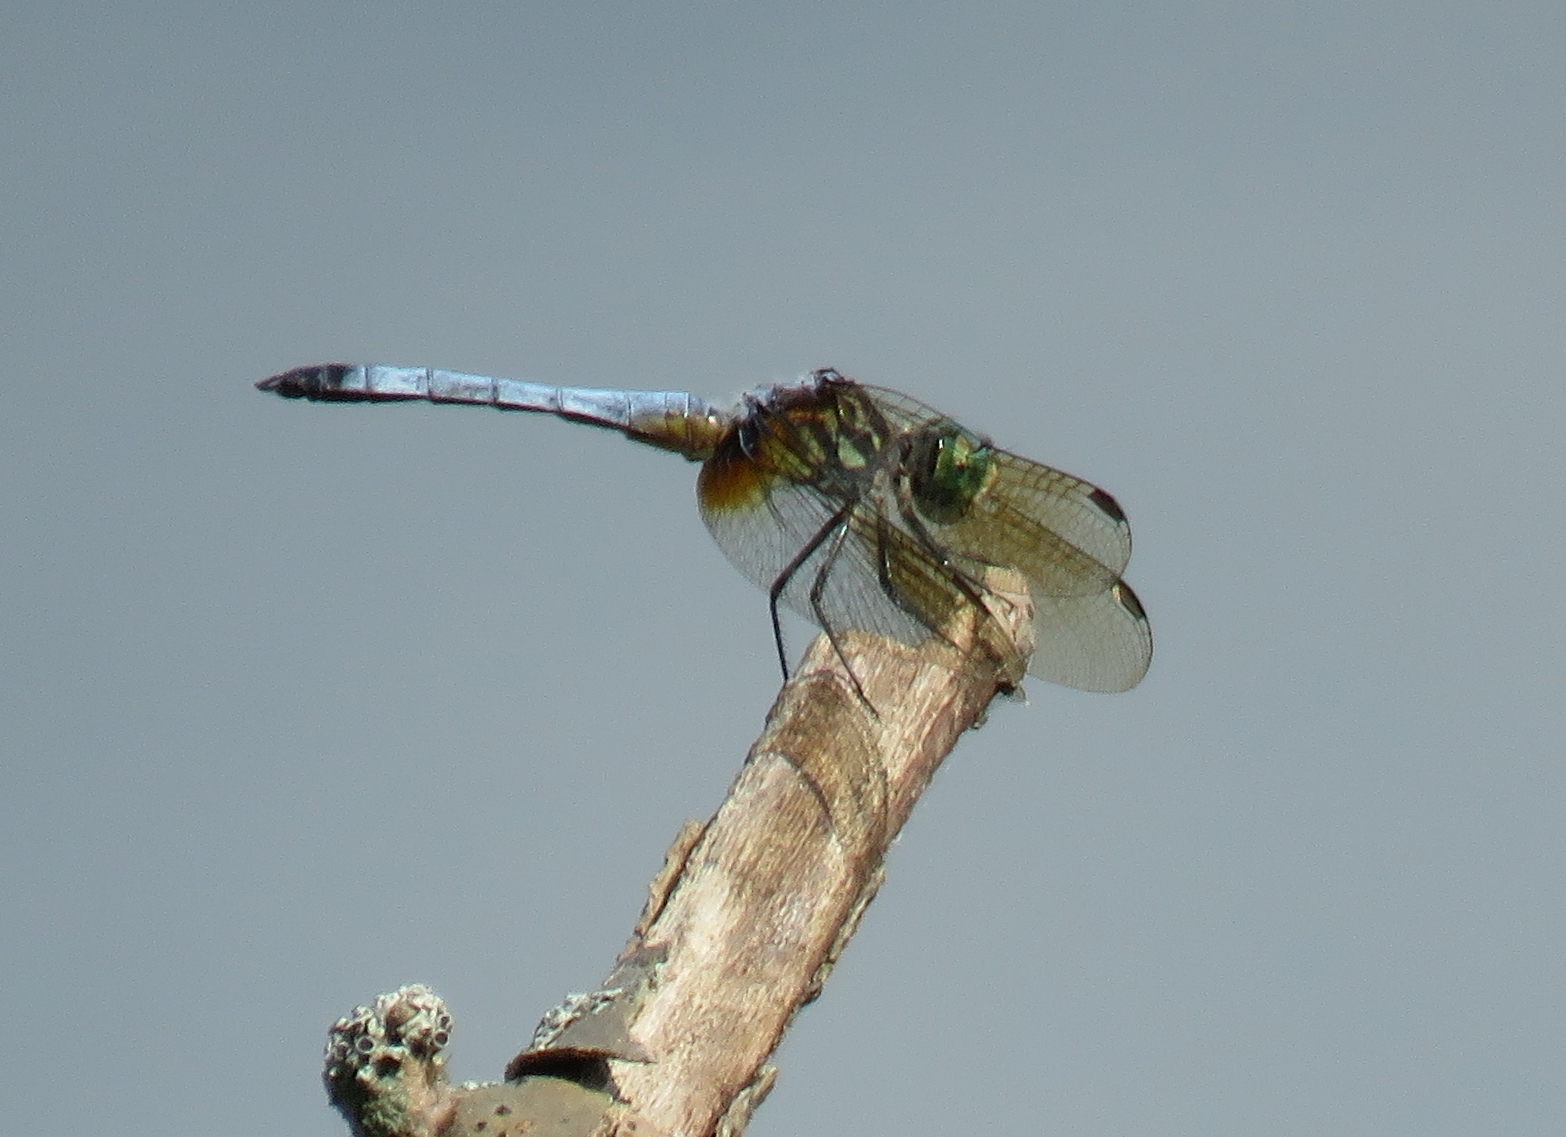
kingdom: Animalia
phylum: Arthropoda
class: Insecta
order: Odonata
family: Libellulidae
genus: Pachydiplax
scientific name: Pachydiplax longipennis
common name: Blue dasher
